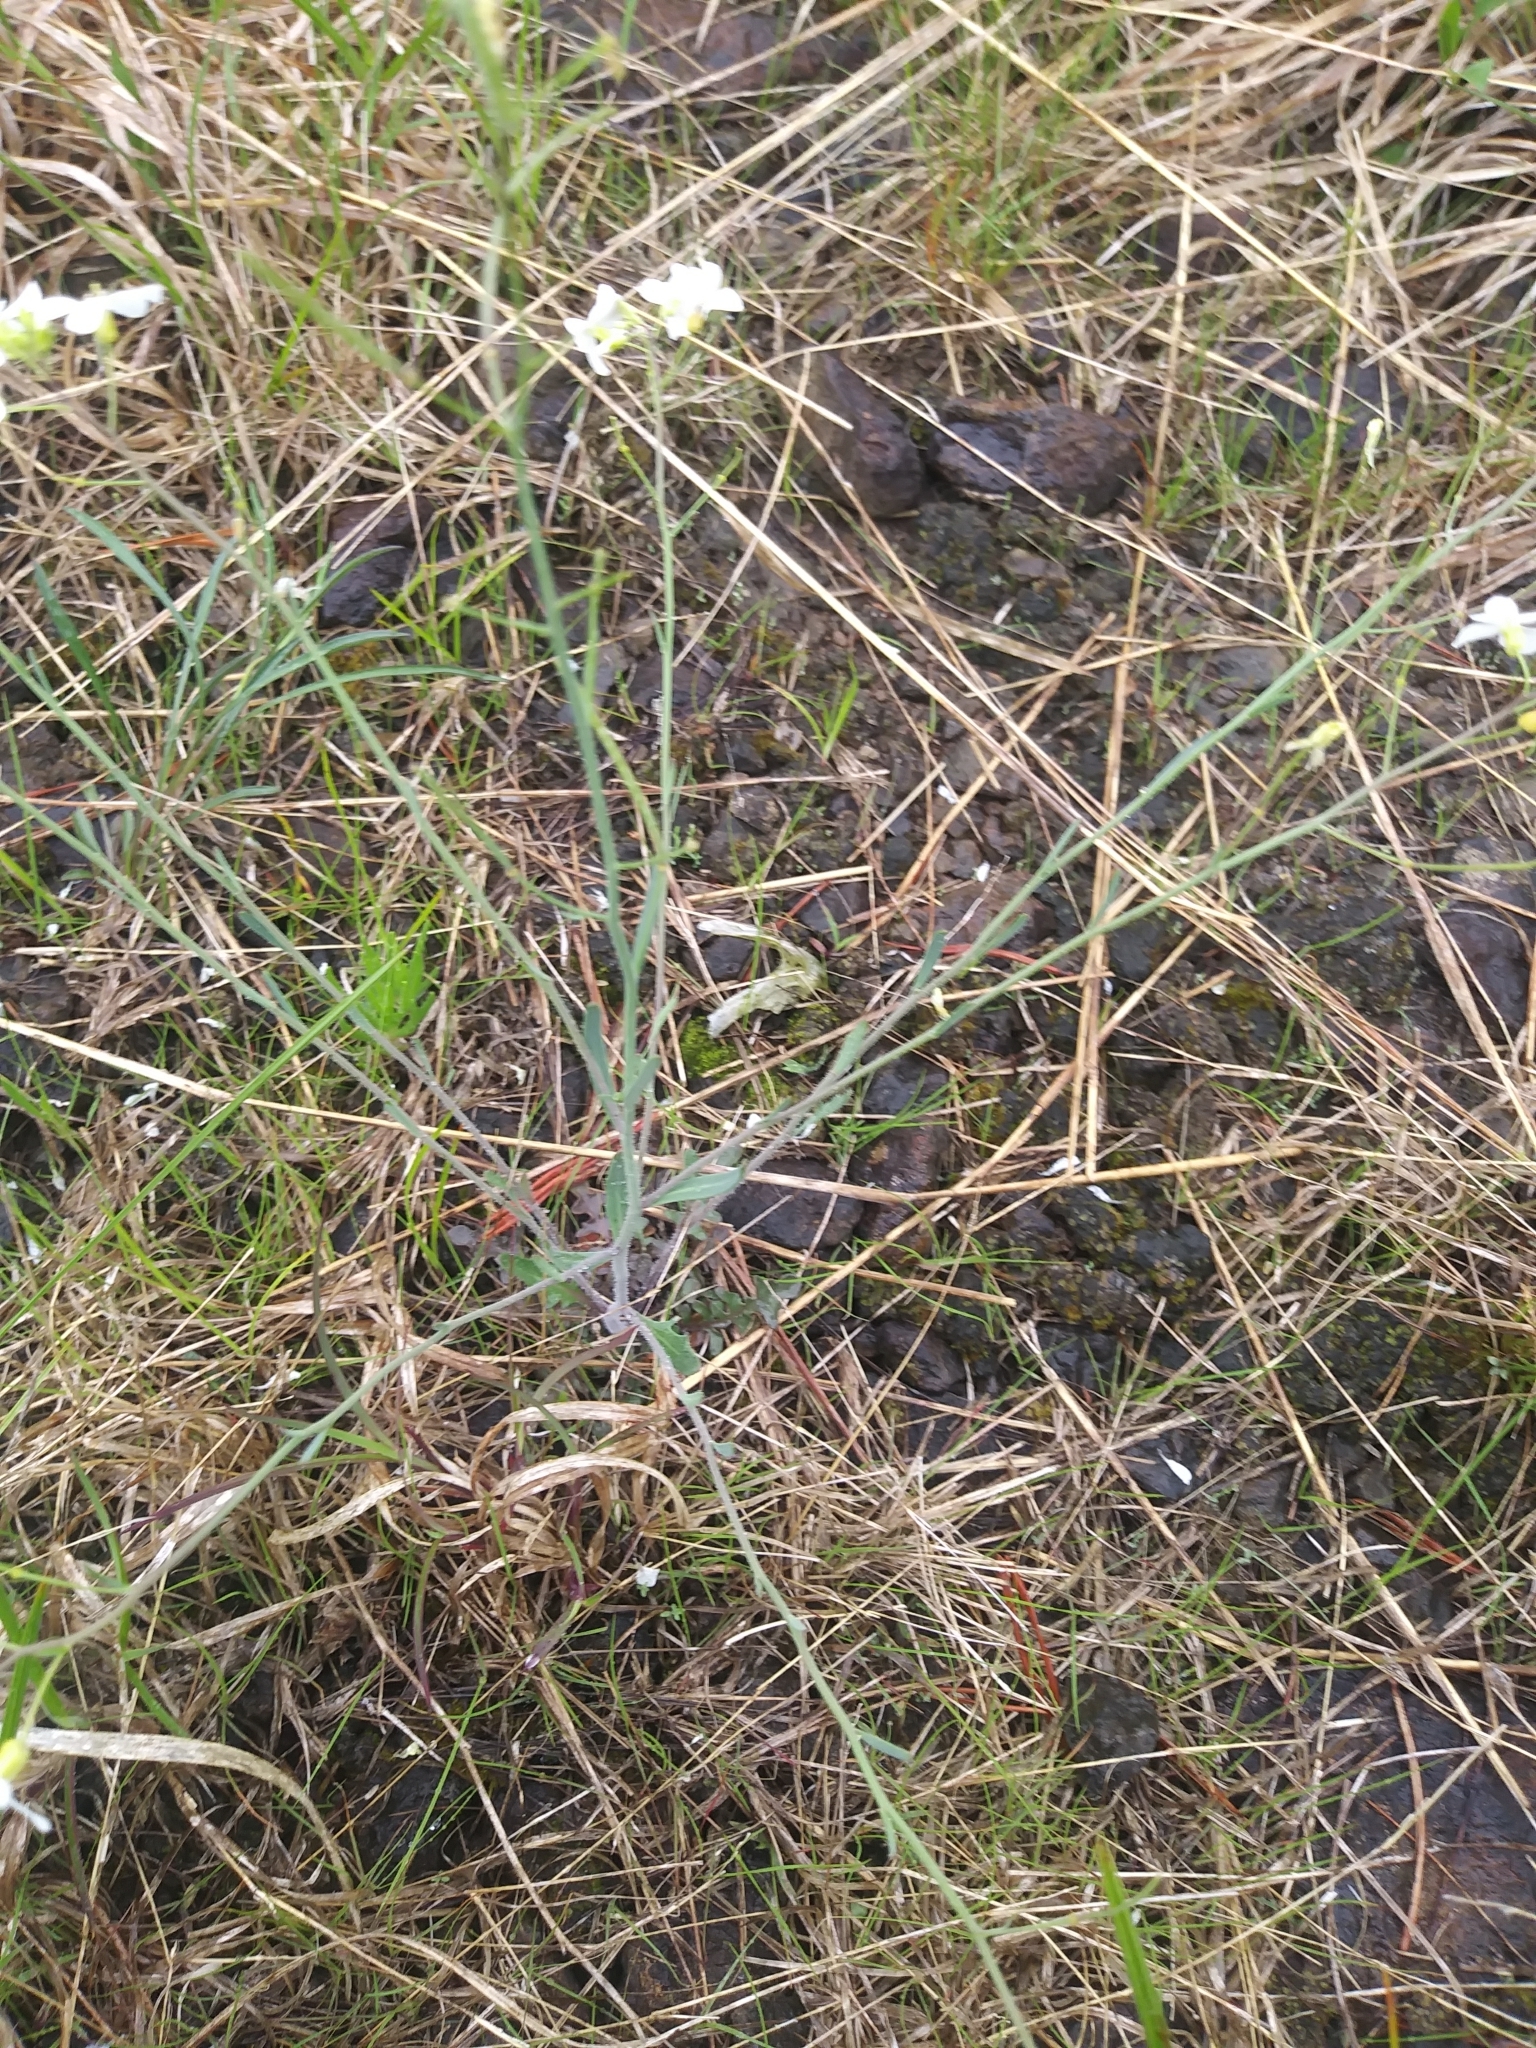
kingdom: Plantae
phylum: Tracheophyta
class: Magnoliopsida
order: Brassicales
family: Brassicaceae
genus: Arabidopsis
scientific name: Arabidopsis lyrata
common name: Lyrate rockcress
